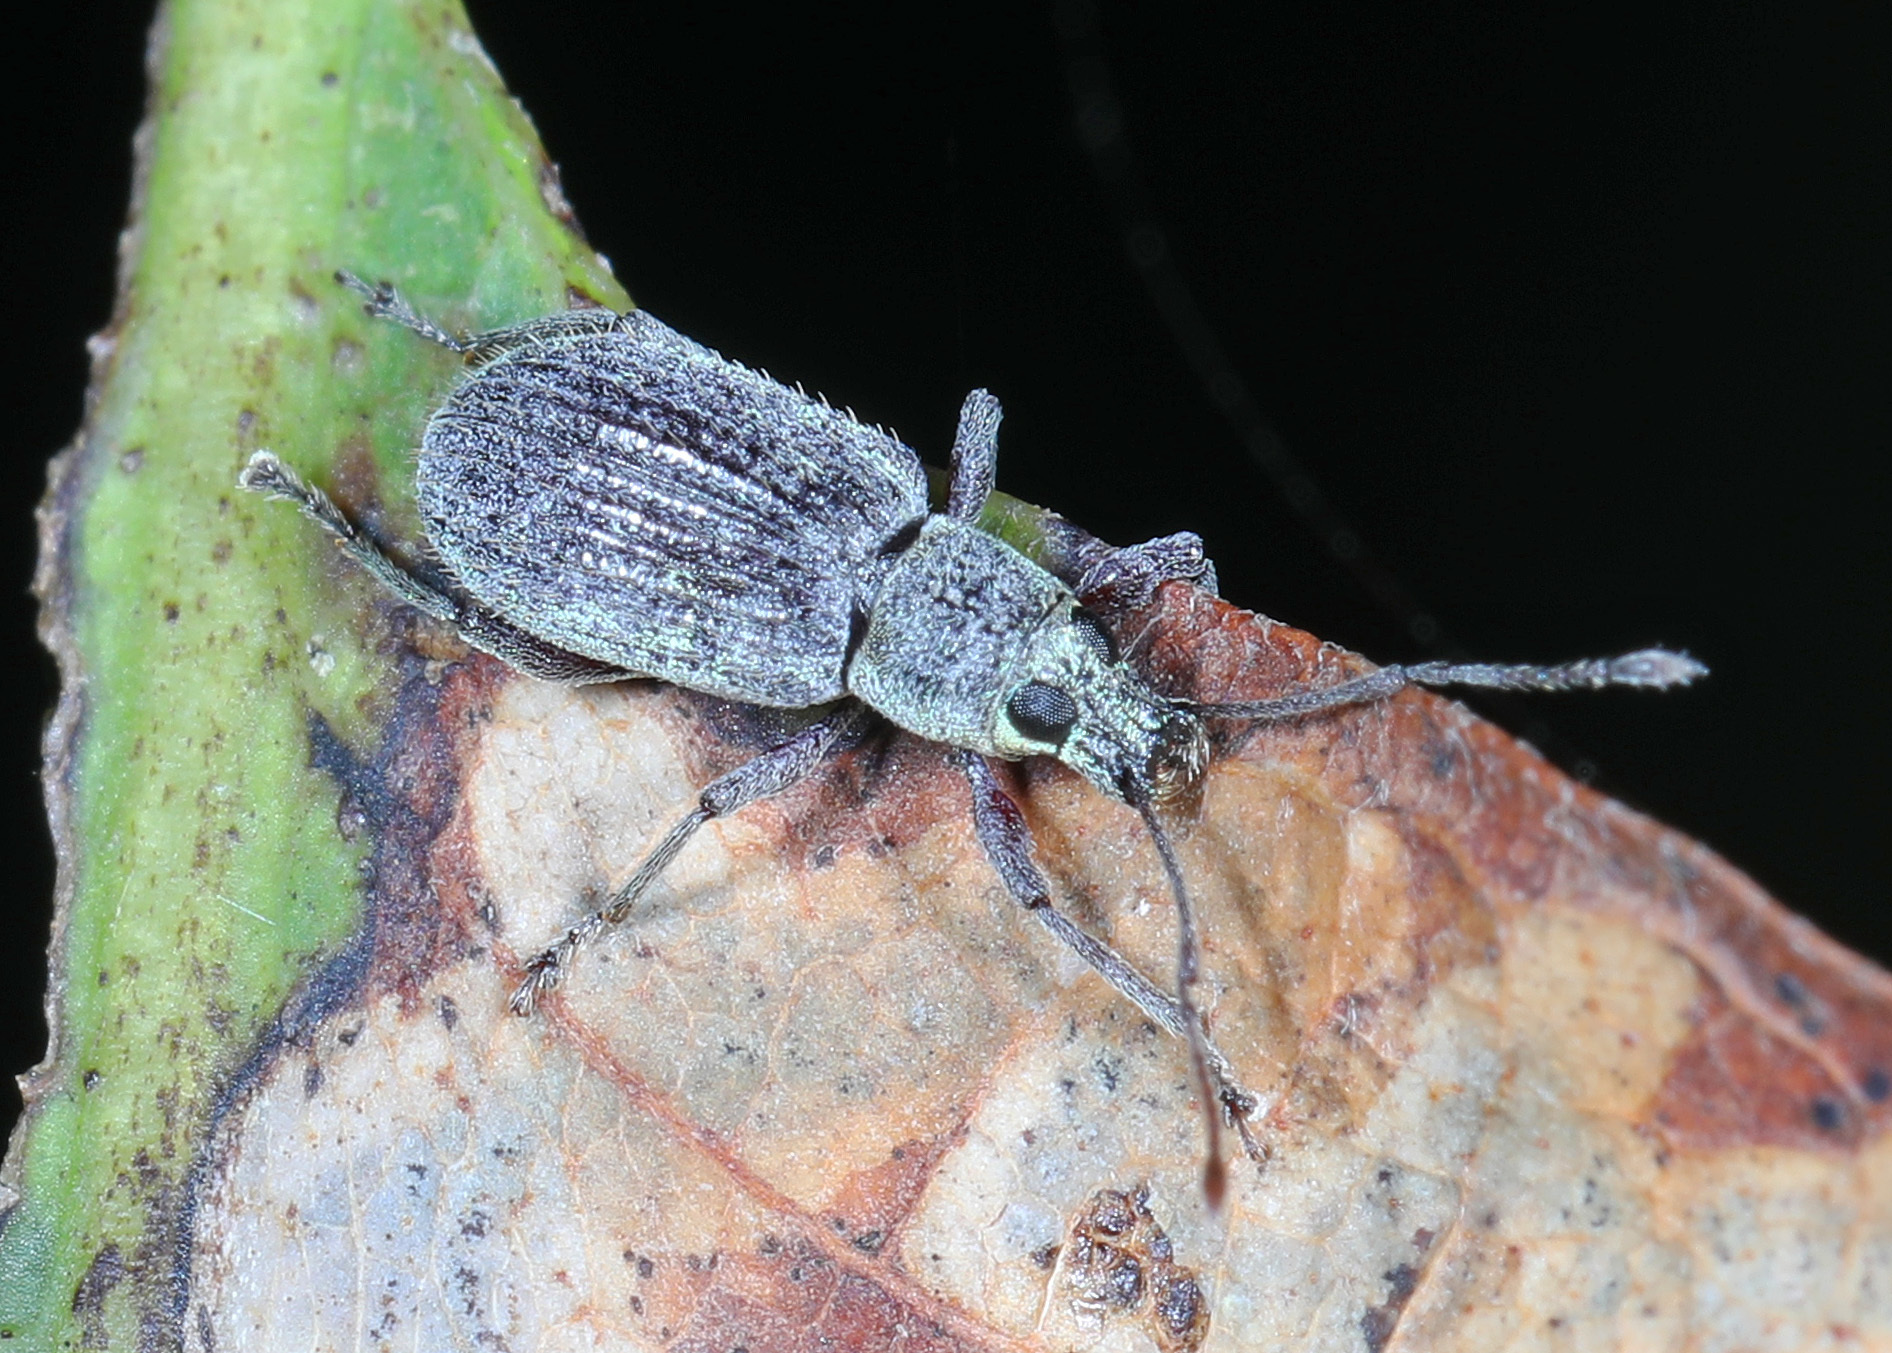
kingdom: Animalia
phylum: Arthropoda
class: Insecta
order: Coleoptera
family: Curculionidae
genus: Cyrtepistomus
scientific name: Cyrtepistomus castaneus
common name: Weevil
